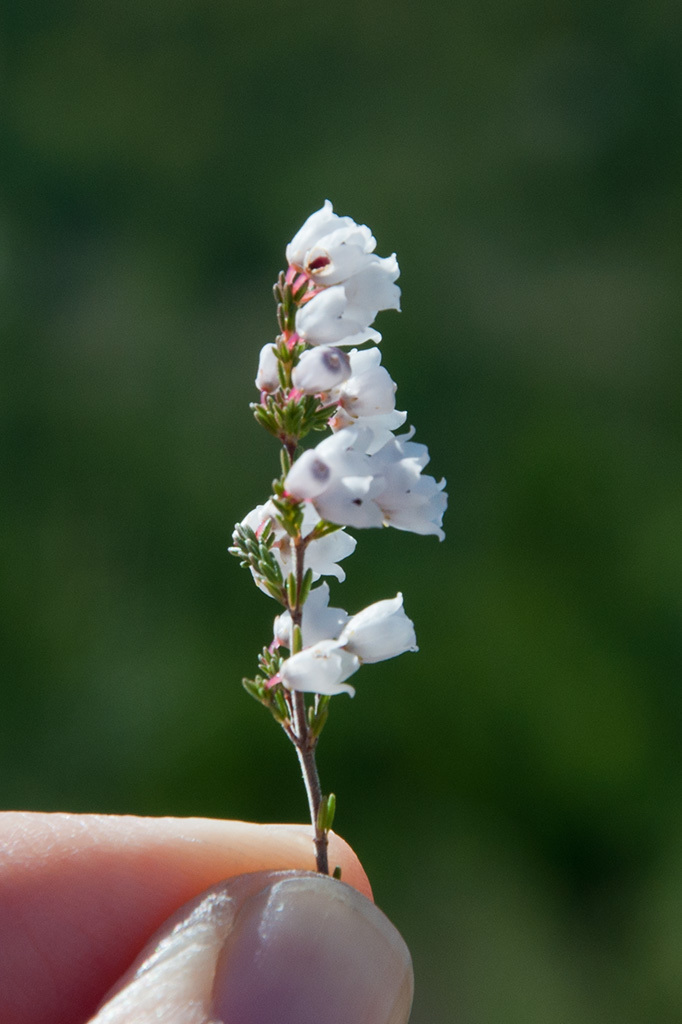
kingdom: Plantae
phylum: Tracheophyta
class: Magnoliopsida
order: Ericales
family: Ericaceae
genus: Erica
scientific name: Erica quadrangularis
